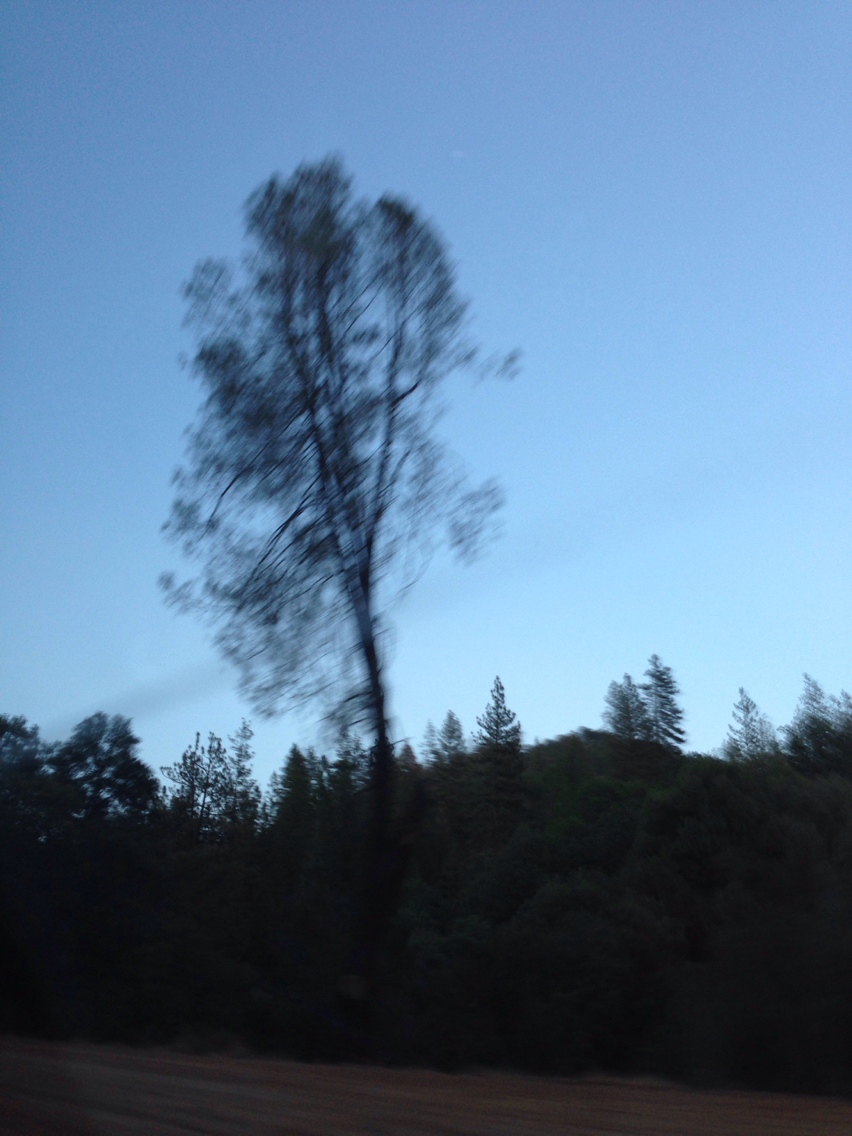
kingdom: Plantae
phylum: Tracheophyta
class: Pinopsida
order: Pinales
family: Pinaceae
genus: Pinus
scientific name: Pinus sabiniana
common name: Bull pine
